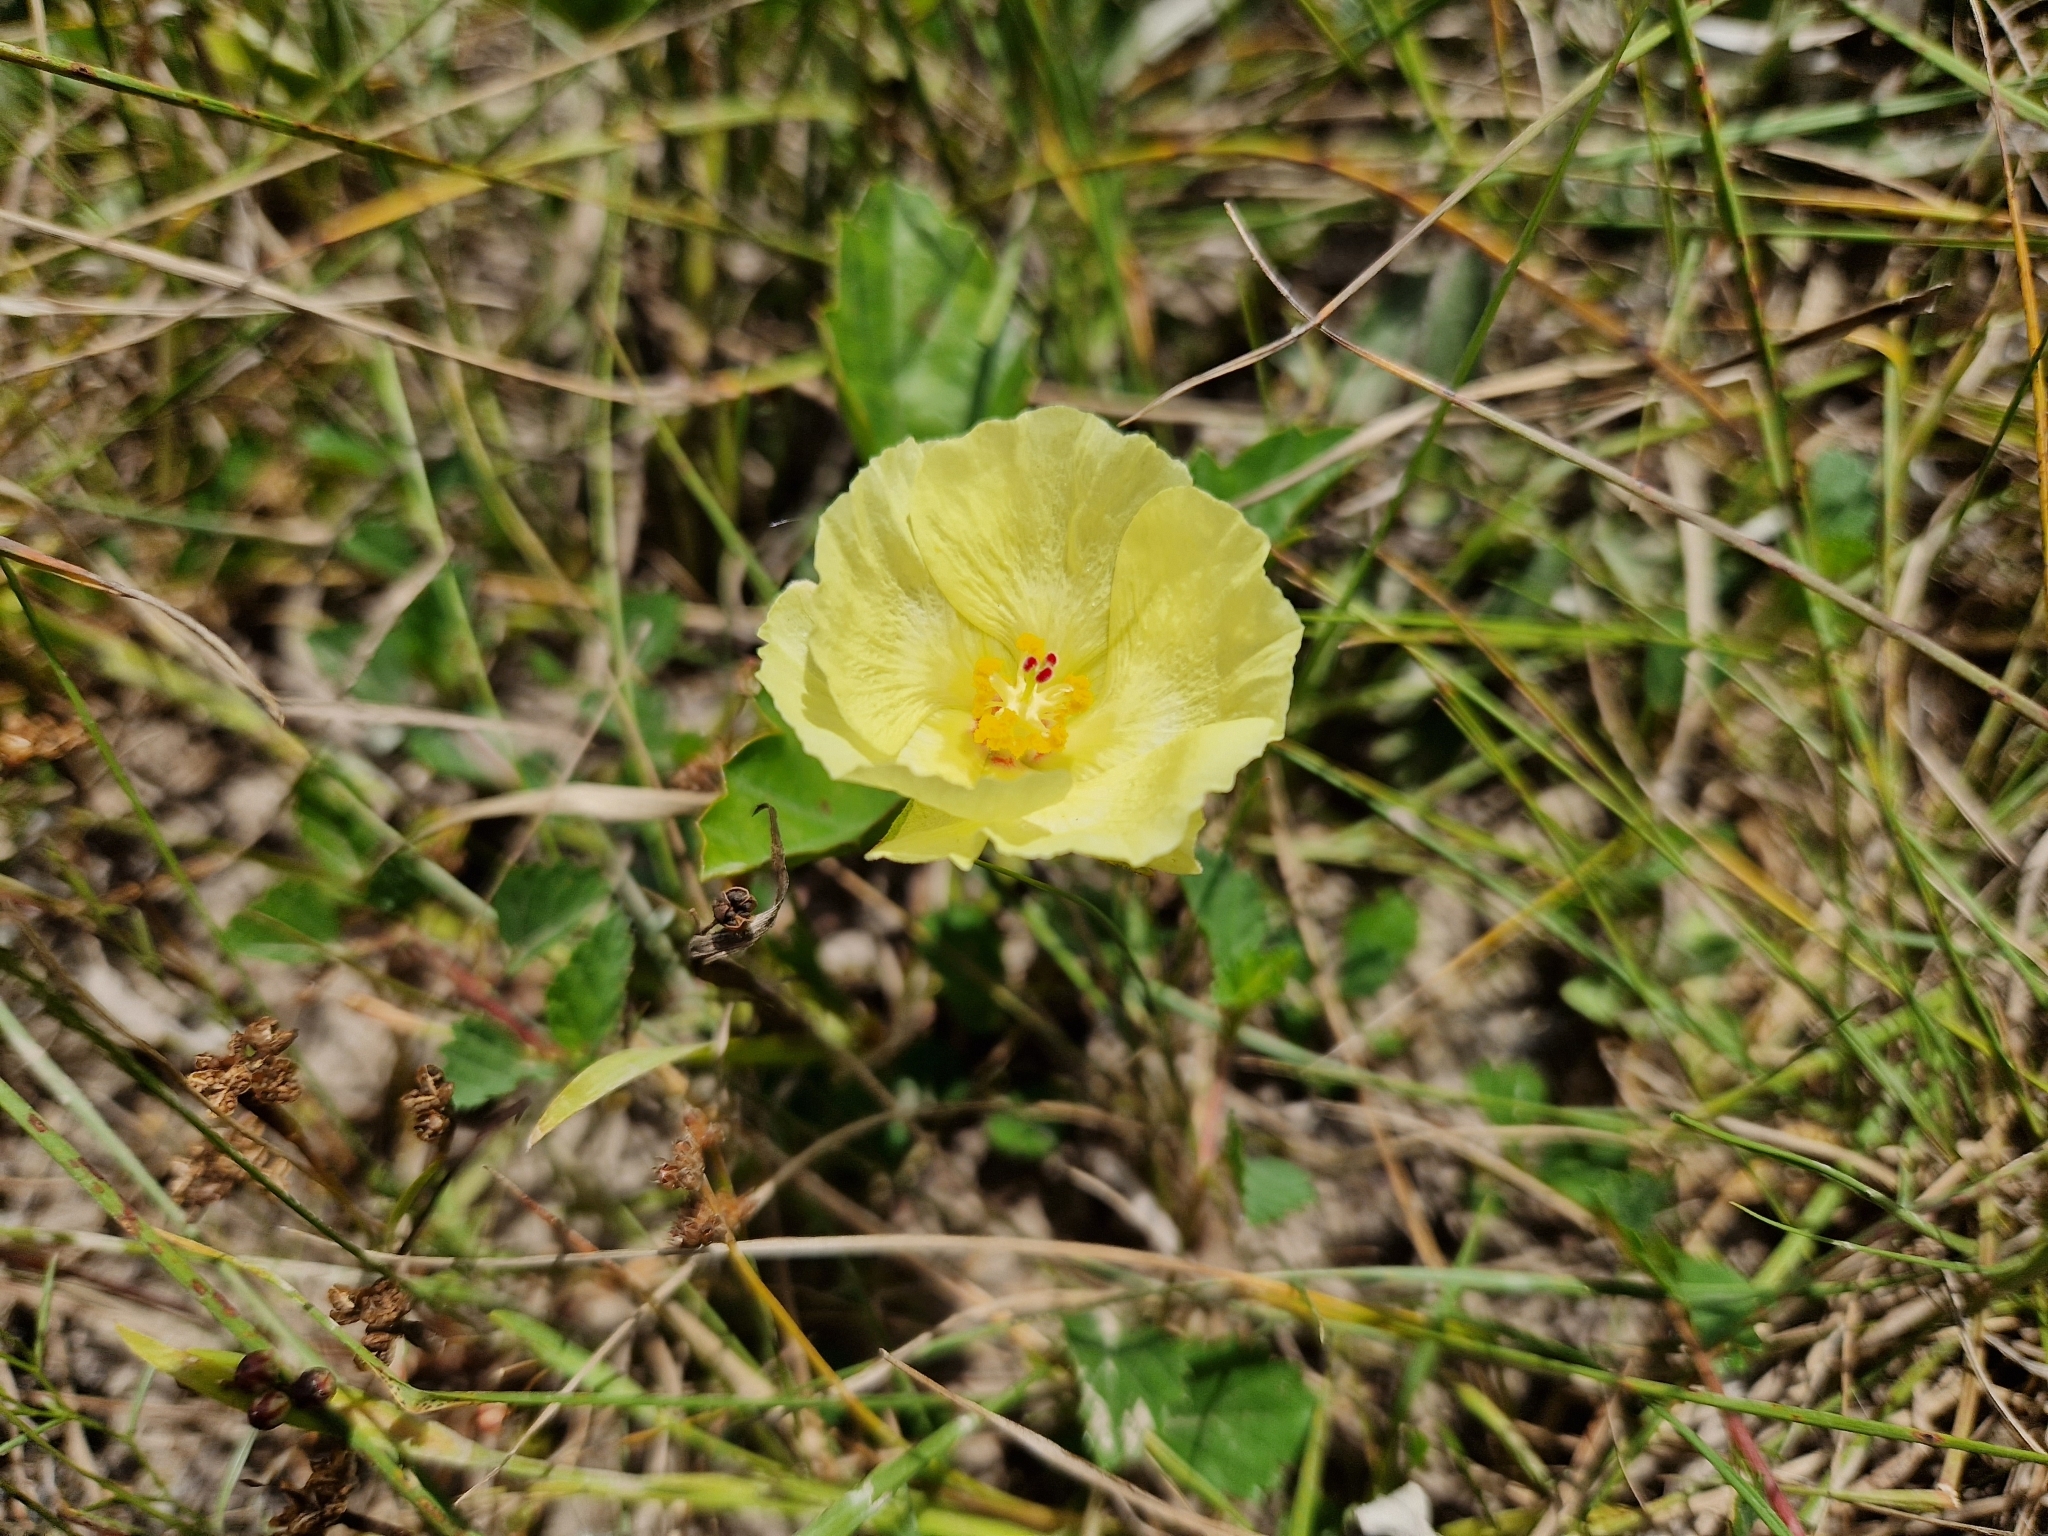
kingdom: Plantae
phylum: Tracheophyta
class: Magnoliopsida
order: Malvales
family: Malvaceae
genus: Cienfuegosia
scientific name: Cienfuegosia drummondii
